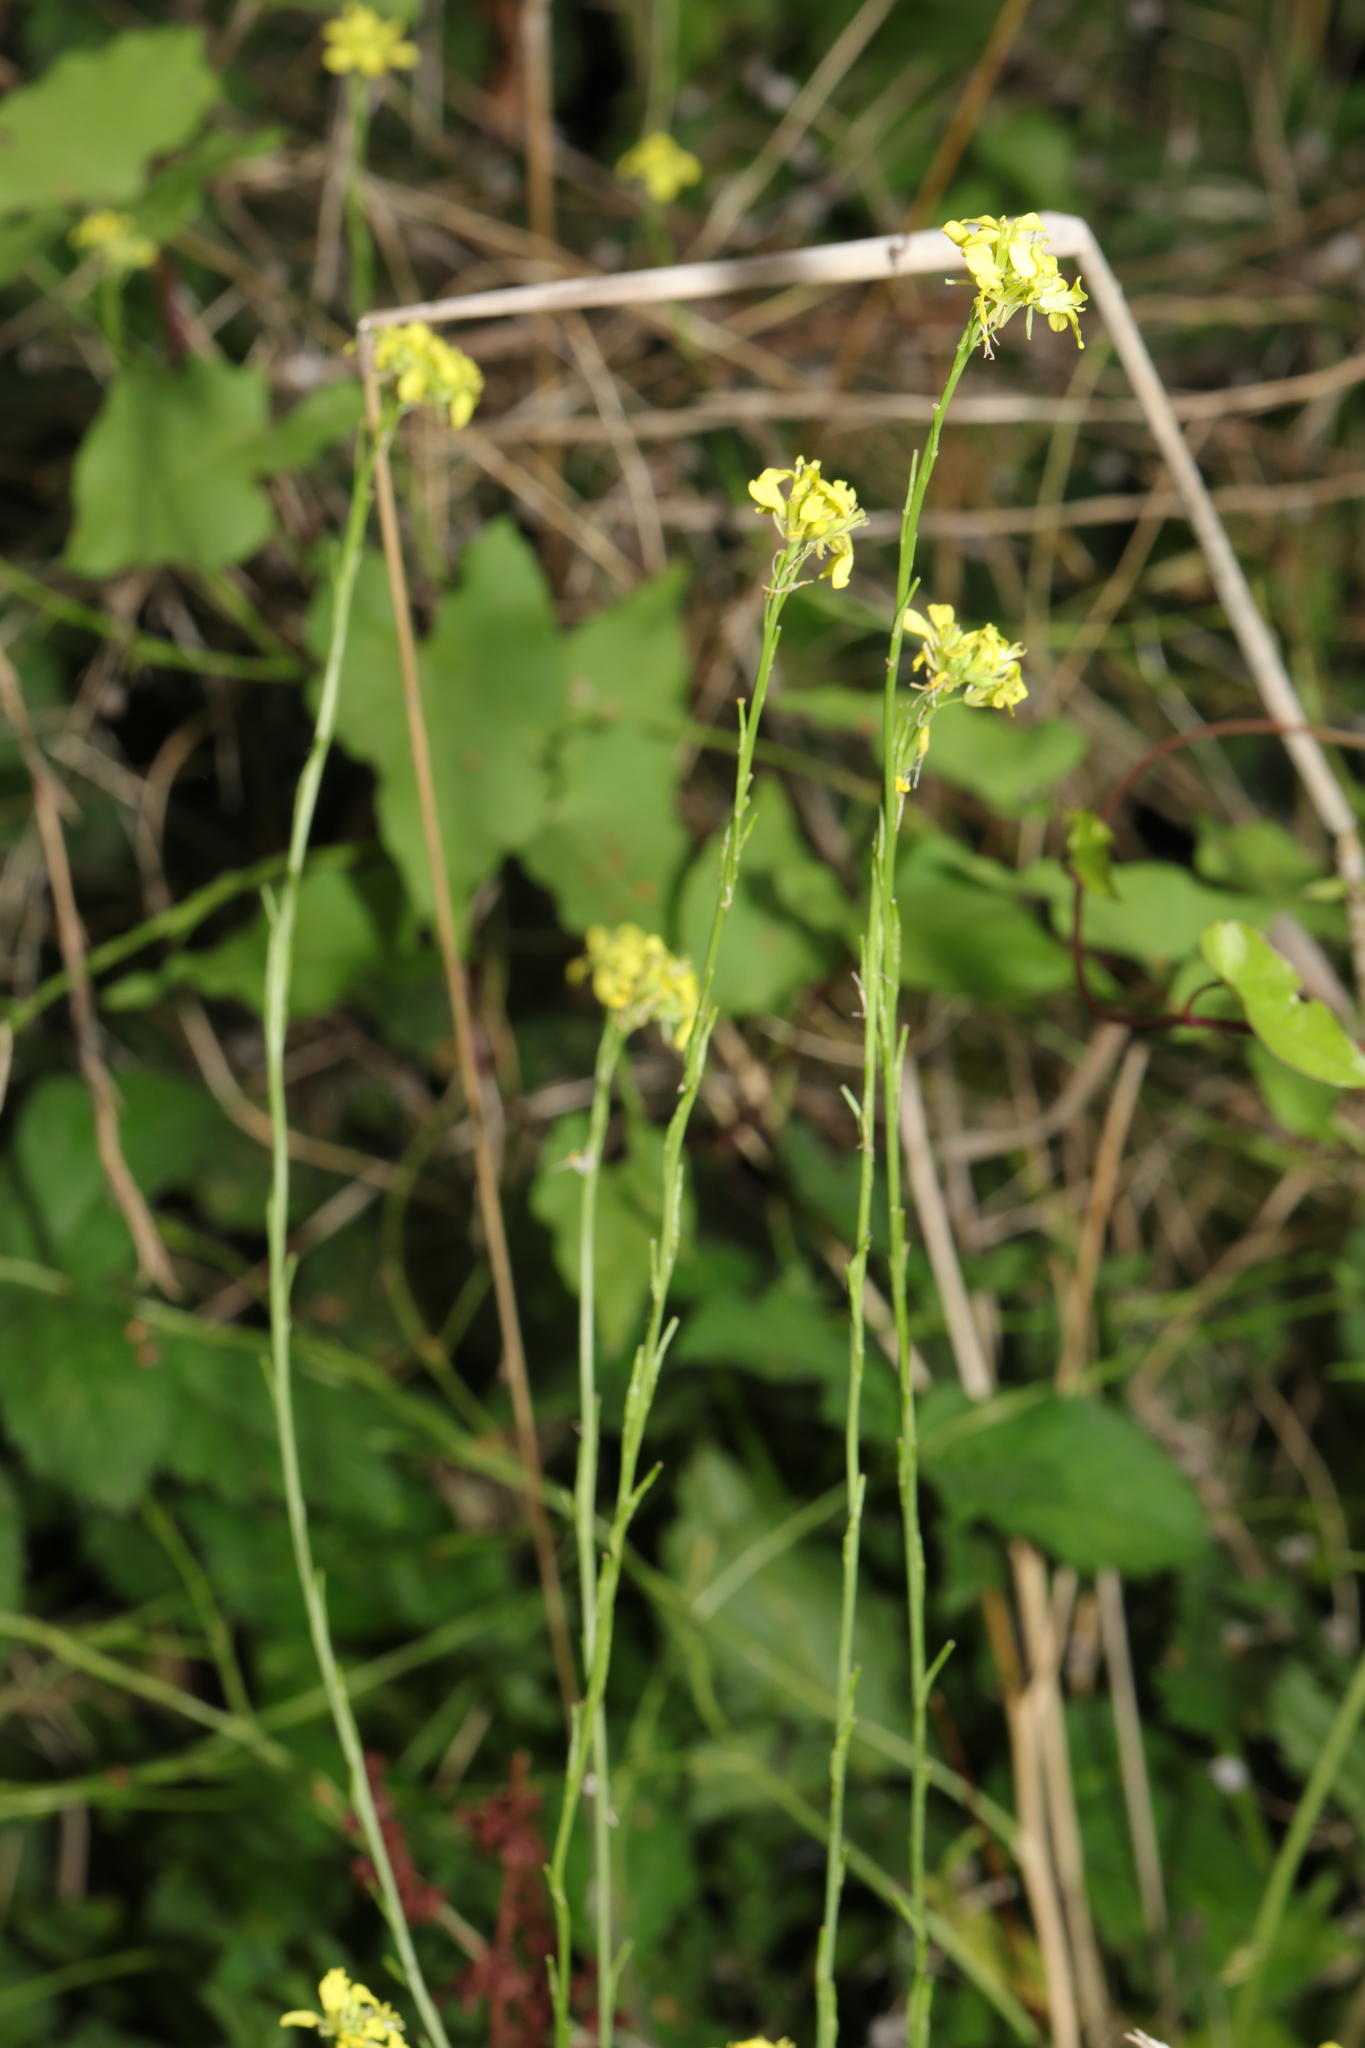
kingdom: Plantae
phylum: Tracheophyta
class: Magnoliopsida
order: Brassicales
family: Brassicaceae
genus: Hirschfeldia
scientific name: Hirschfeldia incana
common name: Hoary mustard
